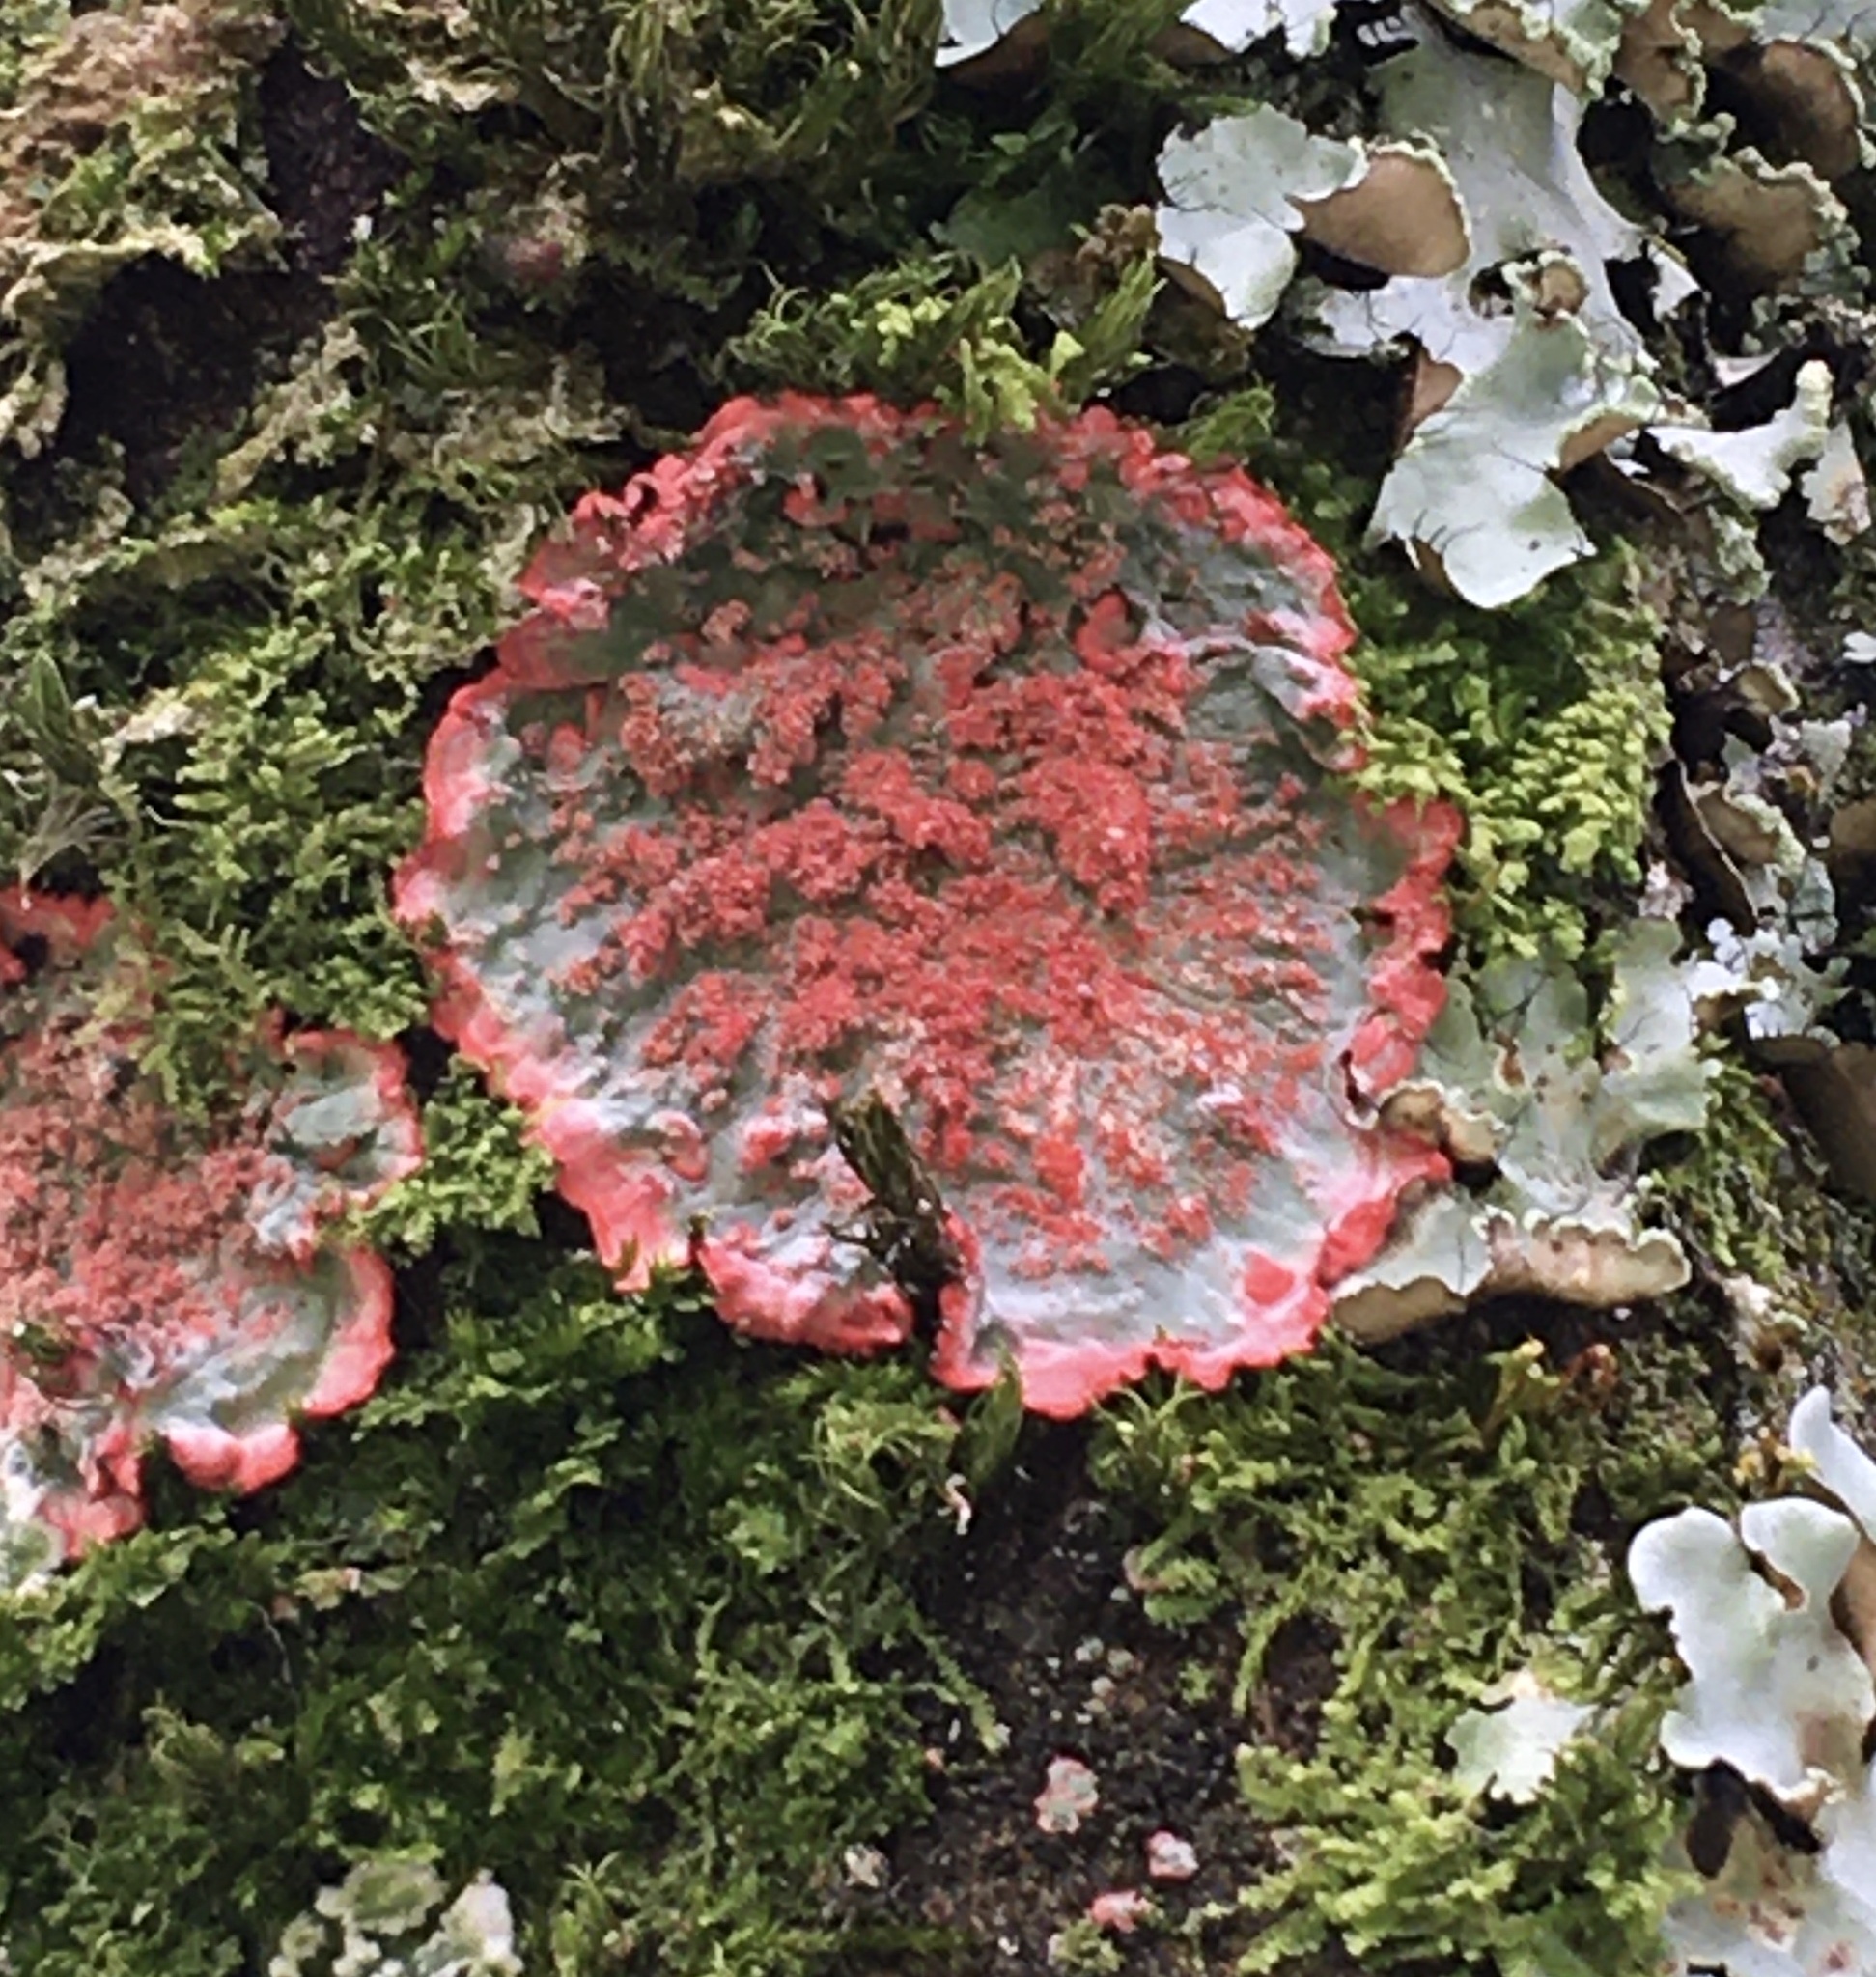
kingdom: Fungi
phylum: Ascomycota
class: Arthoniomycetes
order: Arthoniales
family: Arthoniaceae
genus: Herpothallon
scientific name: Herpothallon rubrocinctum
